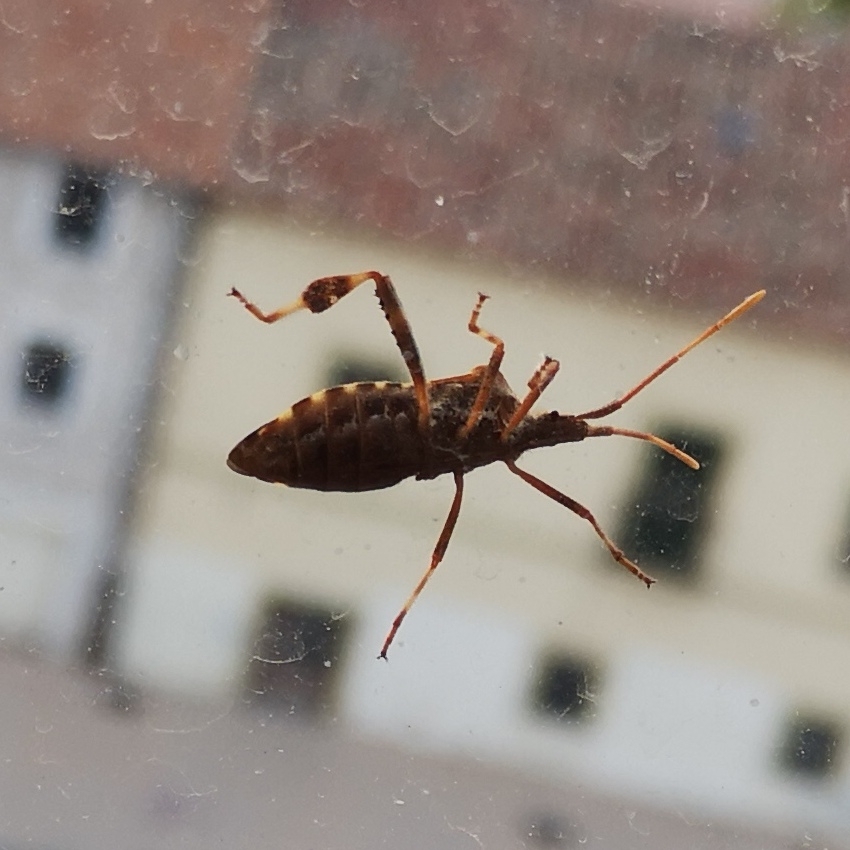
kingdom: Animalia
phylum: Arthropoda
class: Insecta
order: Hemiptera
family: Coreidae
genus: Leptoglossus
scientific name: Leptoglossus occidentalis
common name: Western conifer-seed bug
